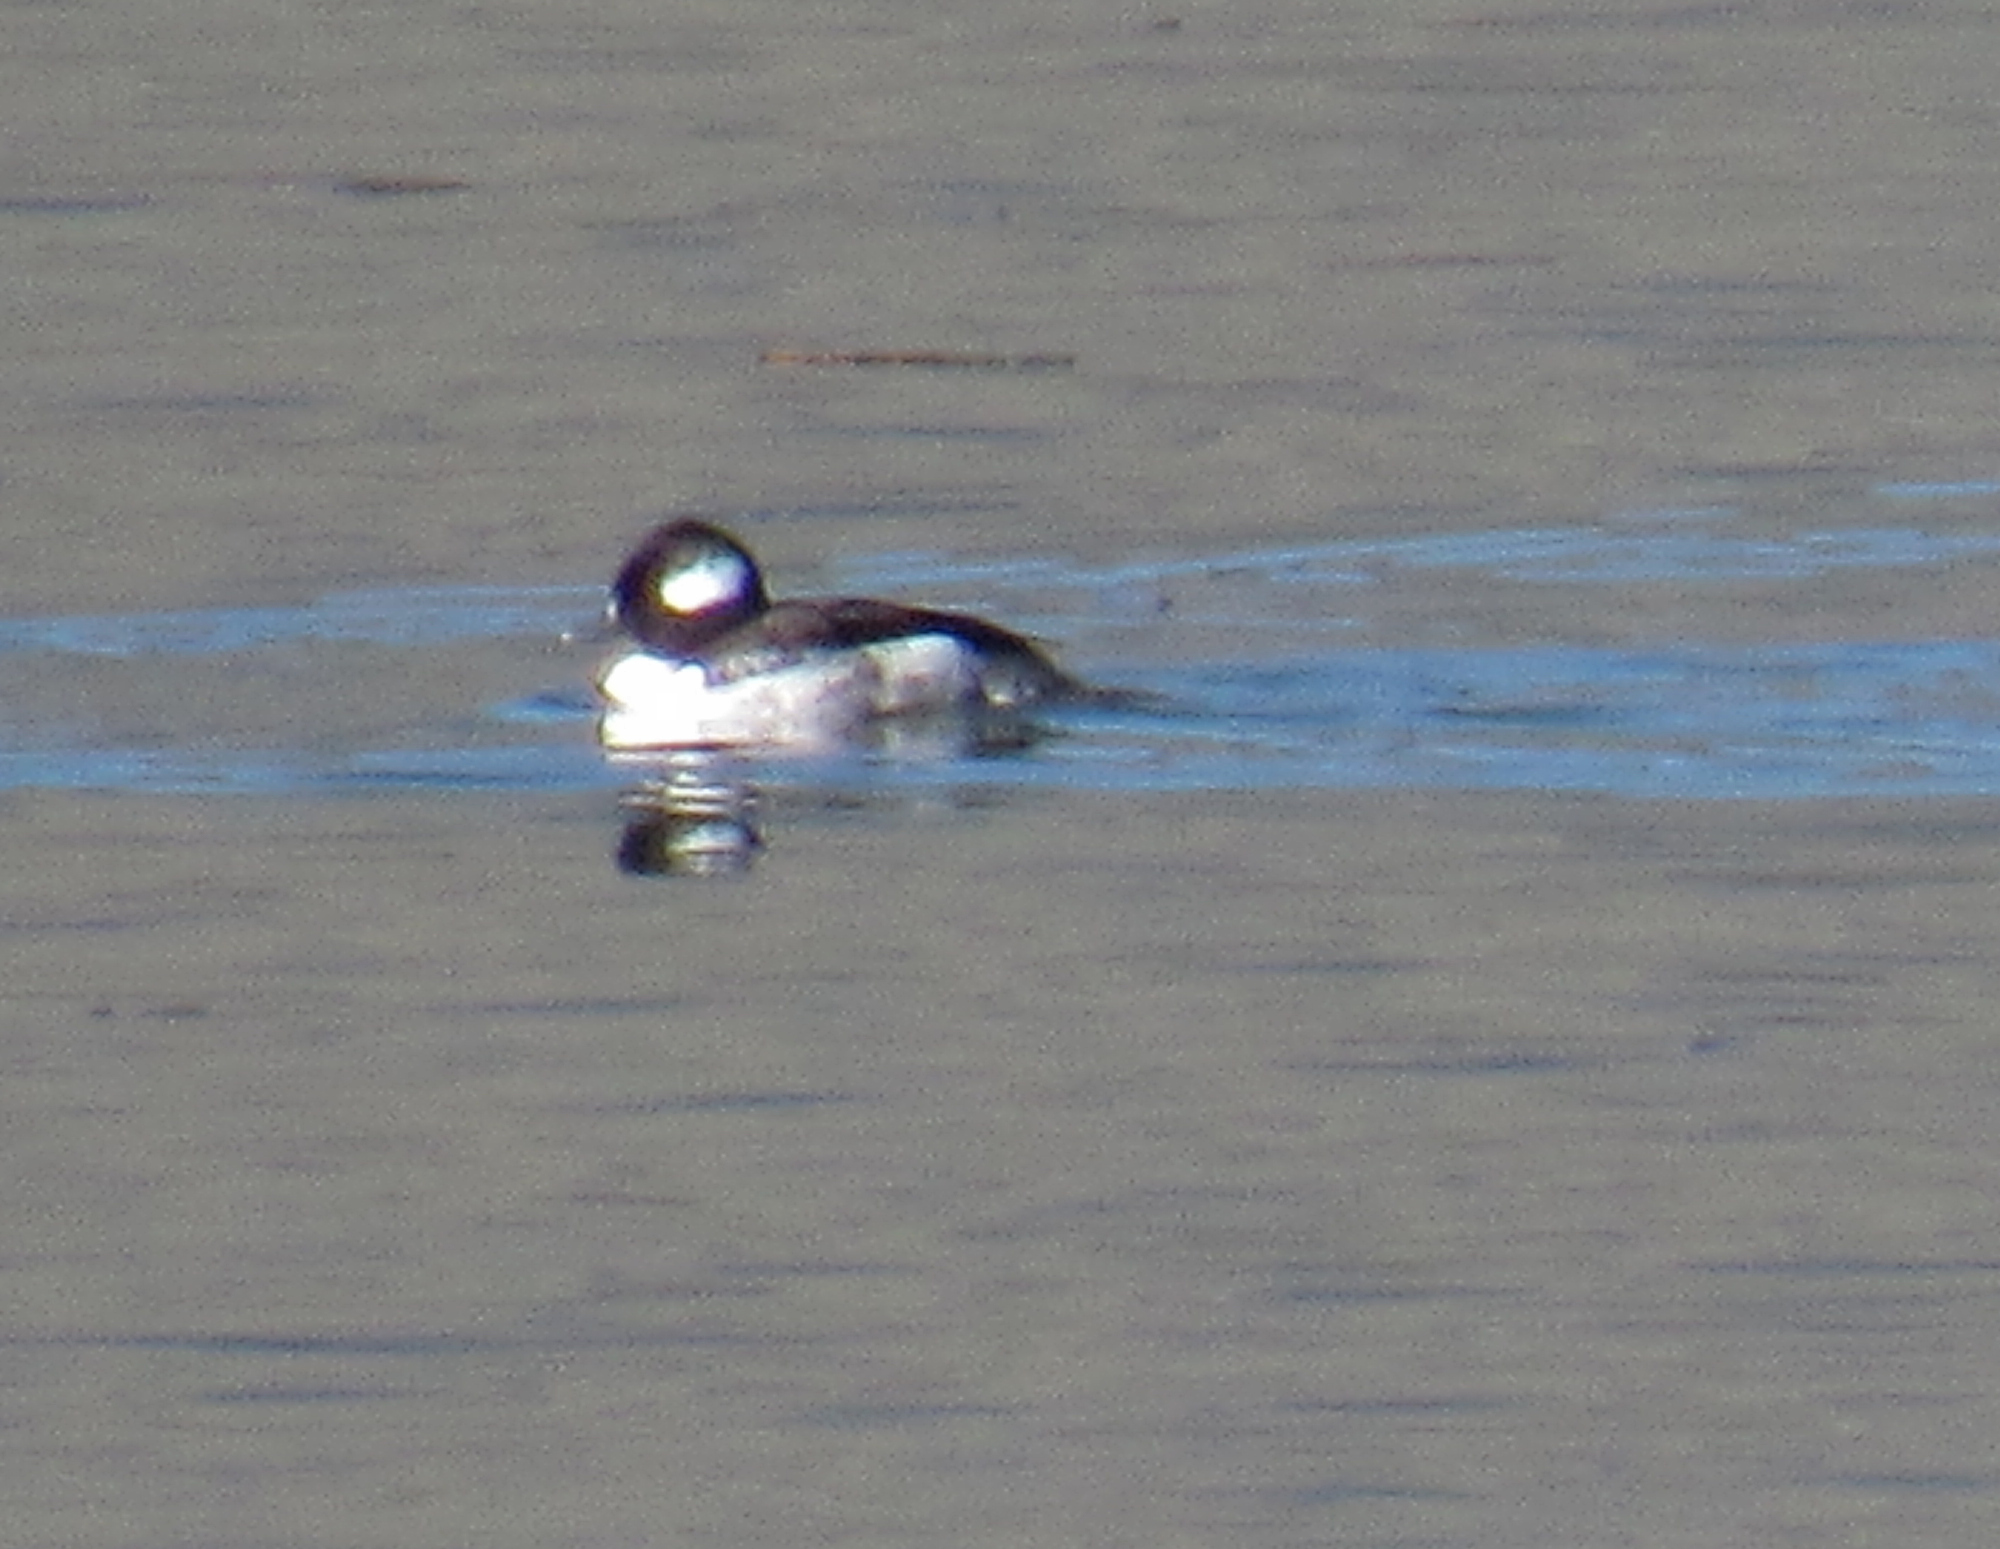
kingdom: Animalia
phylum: Chordata
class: Aves
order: Anseriformes
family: Anatidae
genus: Bucephala
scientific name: Bucephala albeola
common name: Bufflehead
